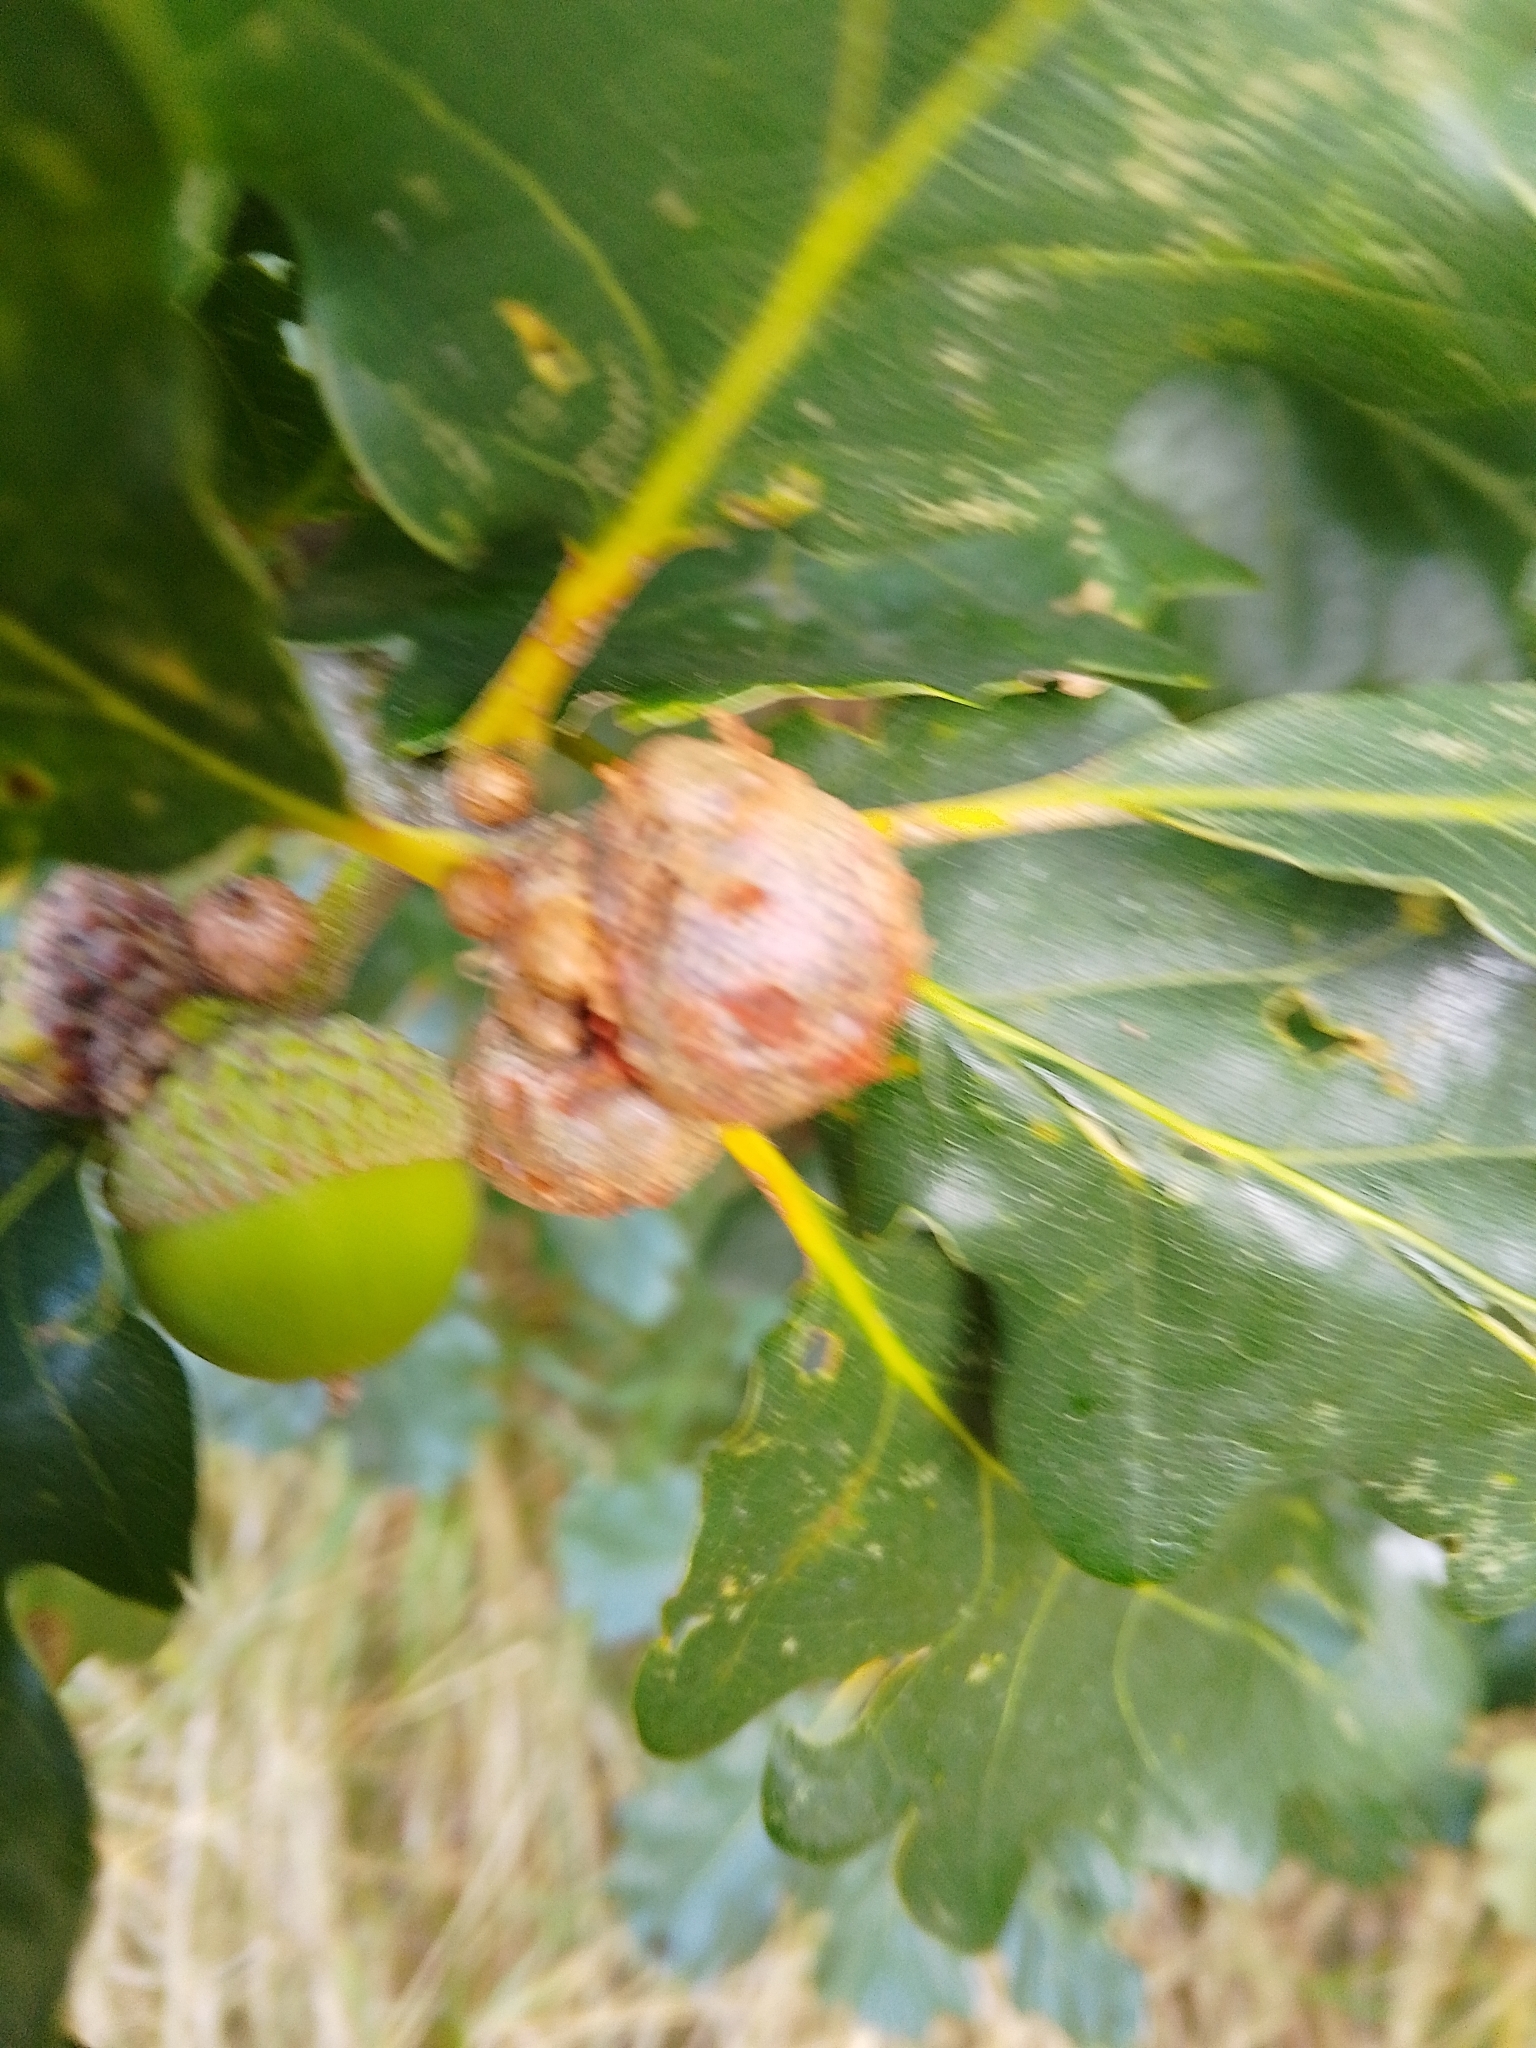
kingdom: Animalia
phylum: Arthropoda
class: Insecta
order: Hymenoptera
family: Cynipidae
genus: Andricus
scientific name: Andricus lignicolus
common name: Cola-nut gall
